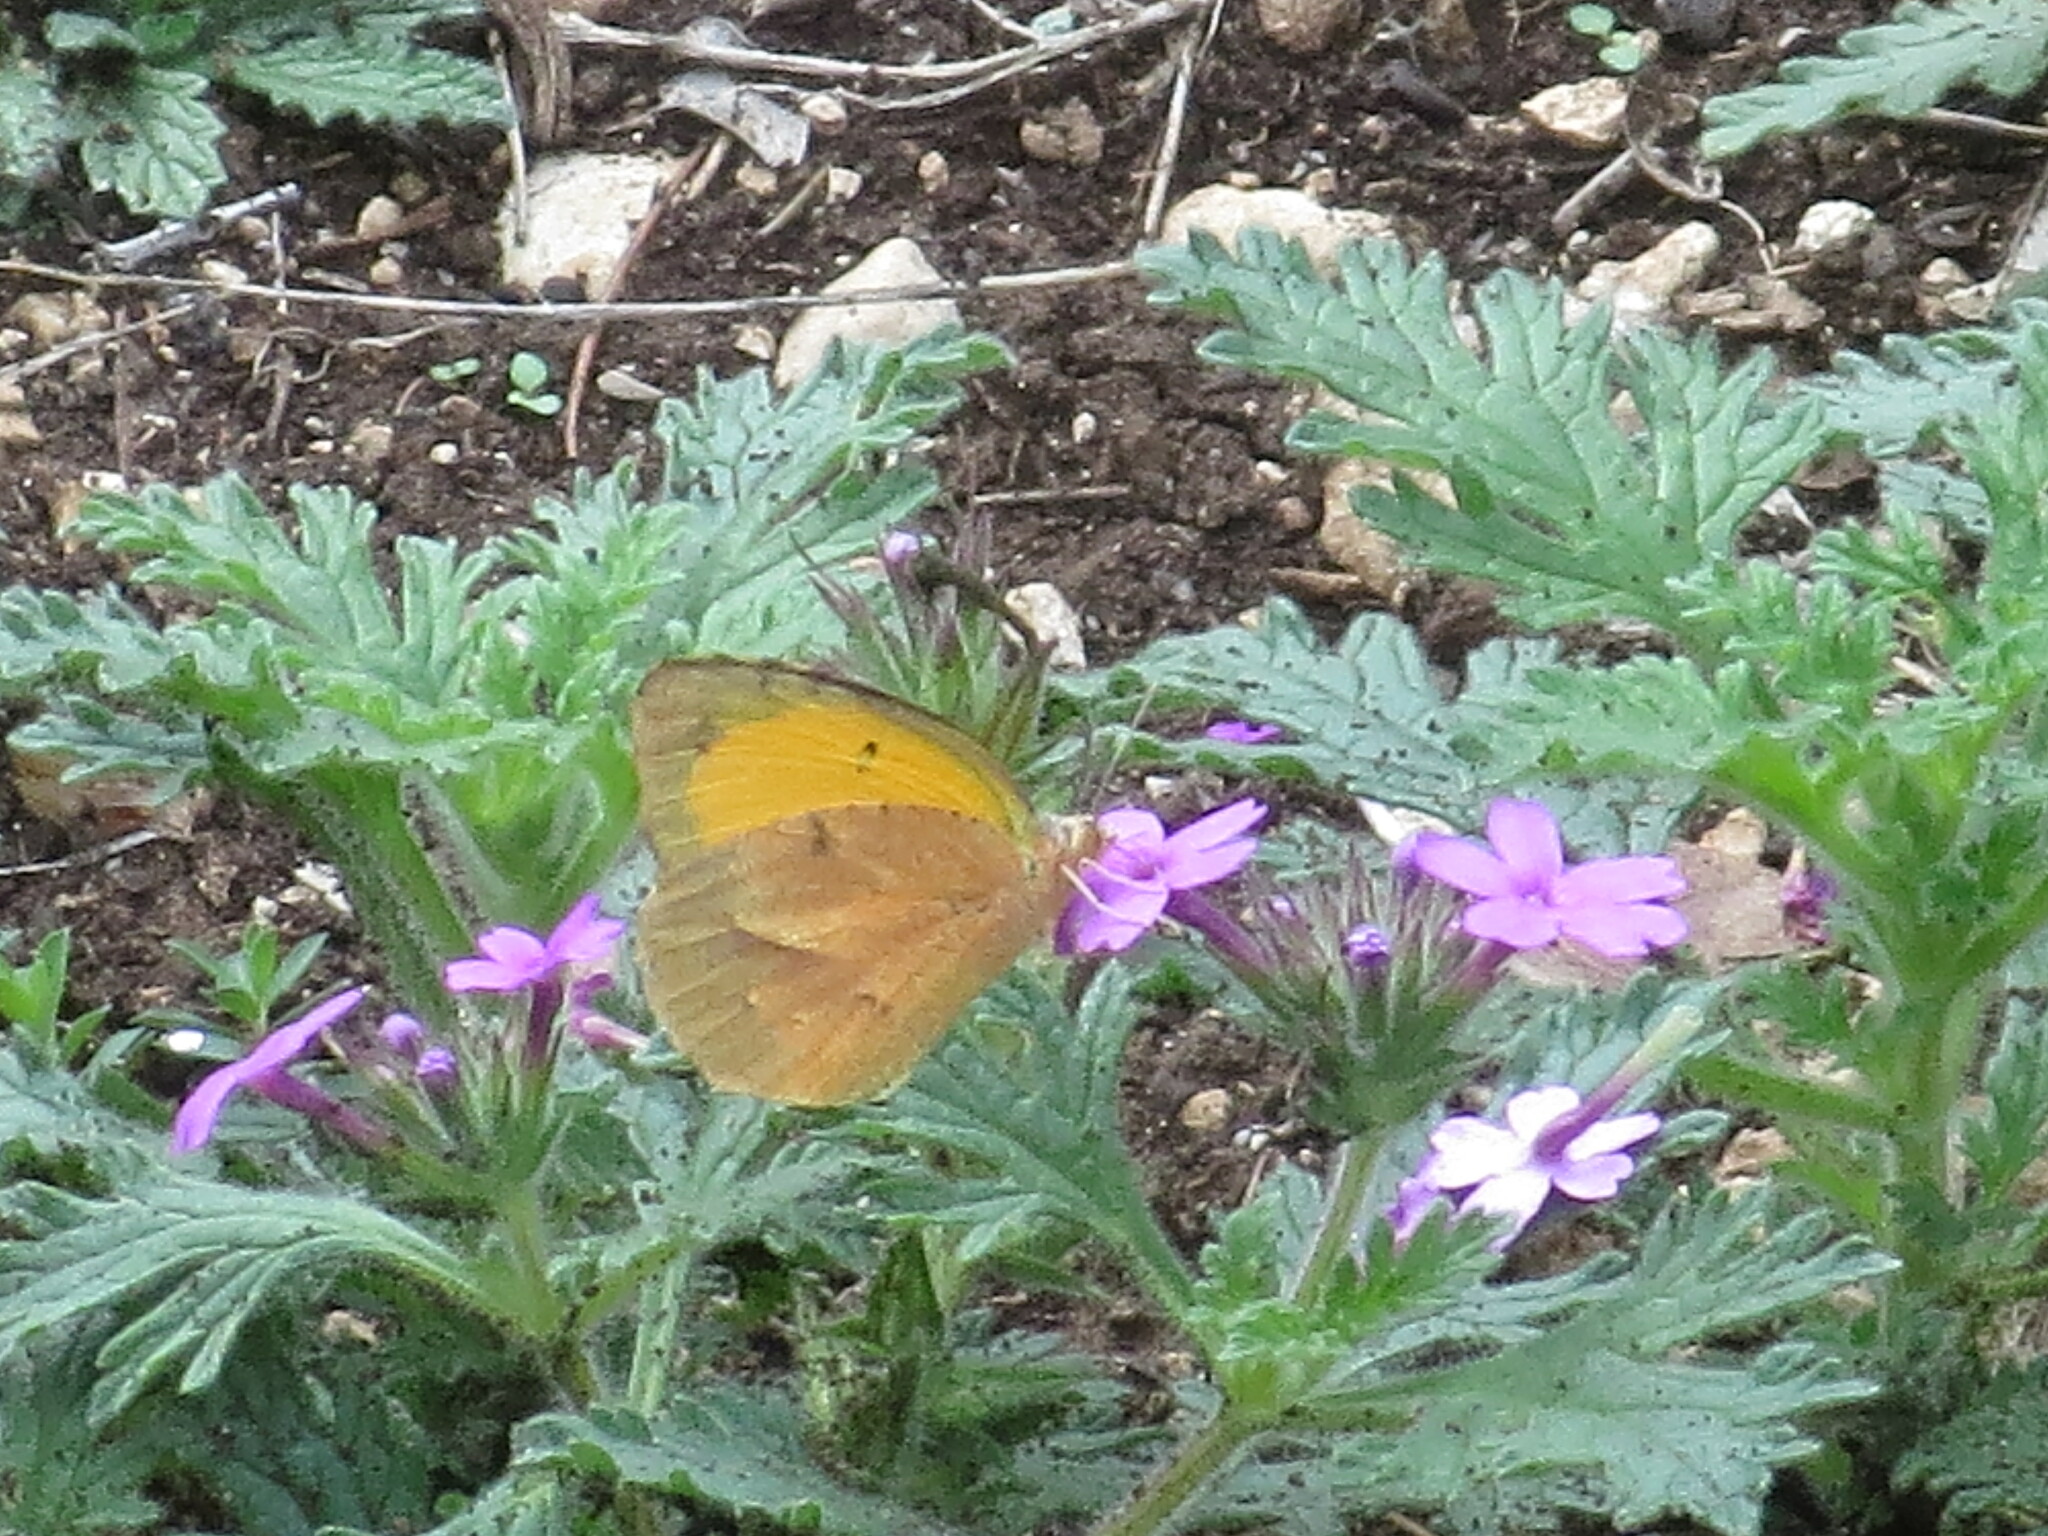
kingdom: Animalia
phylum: Arthropoda
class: Insecta
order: Lepidoptera
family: Pieridae
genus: Abaeis
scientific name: Abaeis nicippe
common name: Sleepy orange
